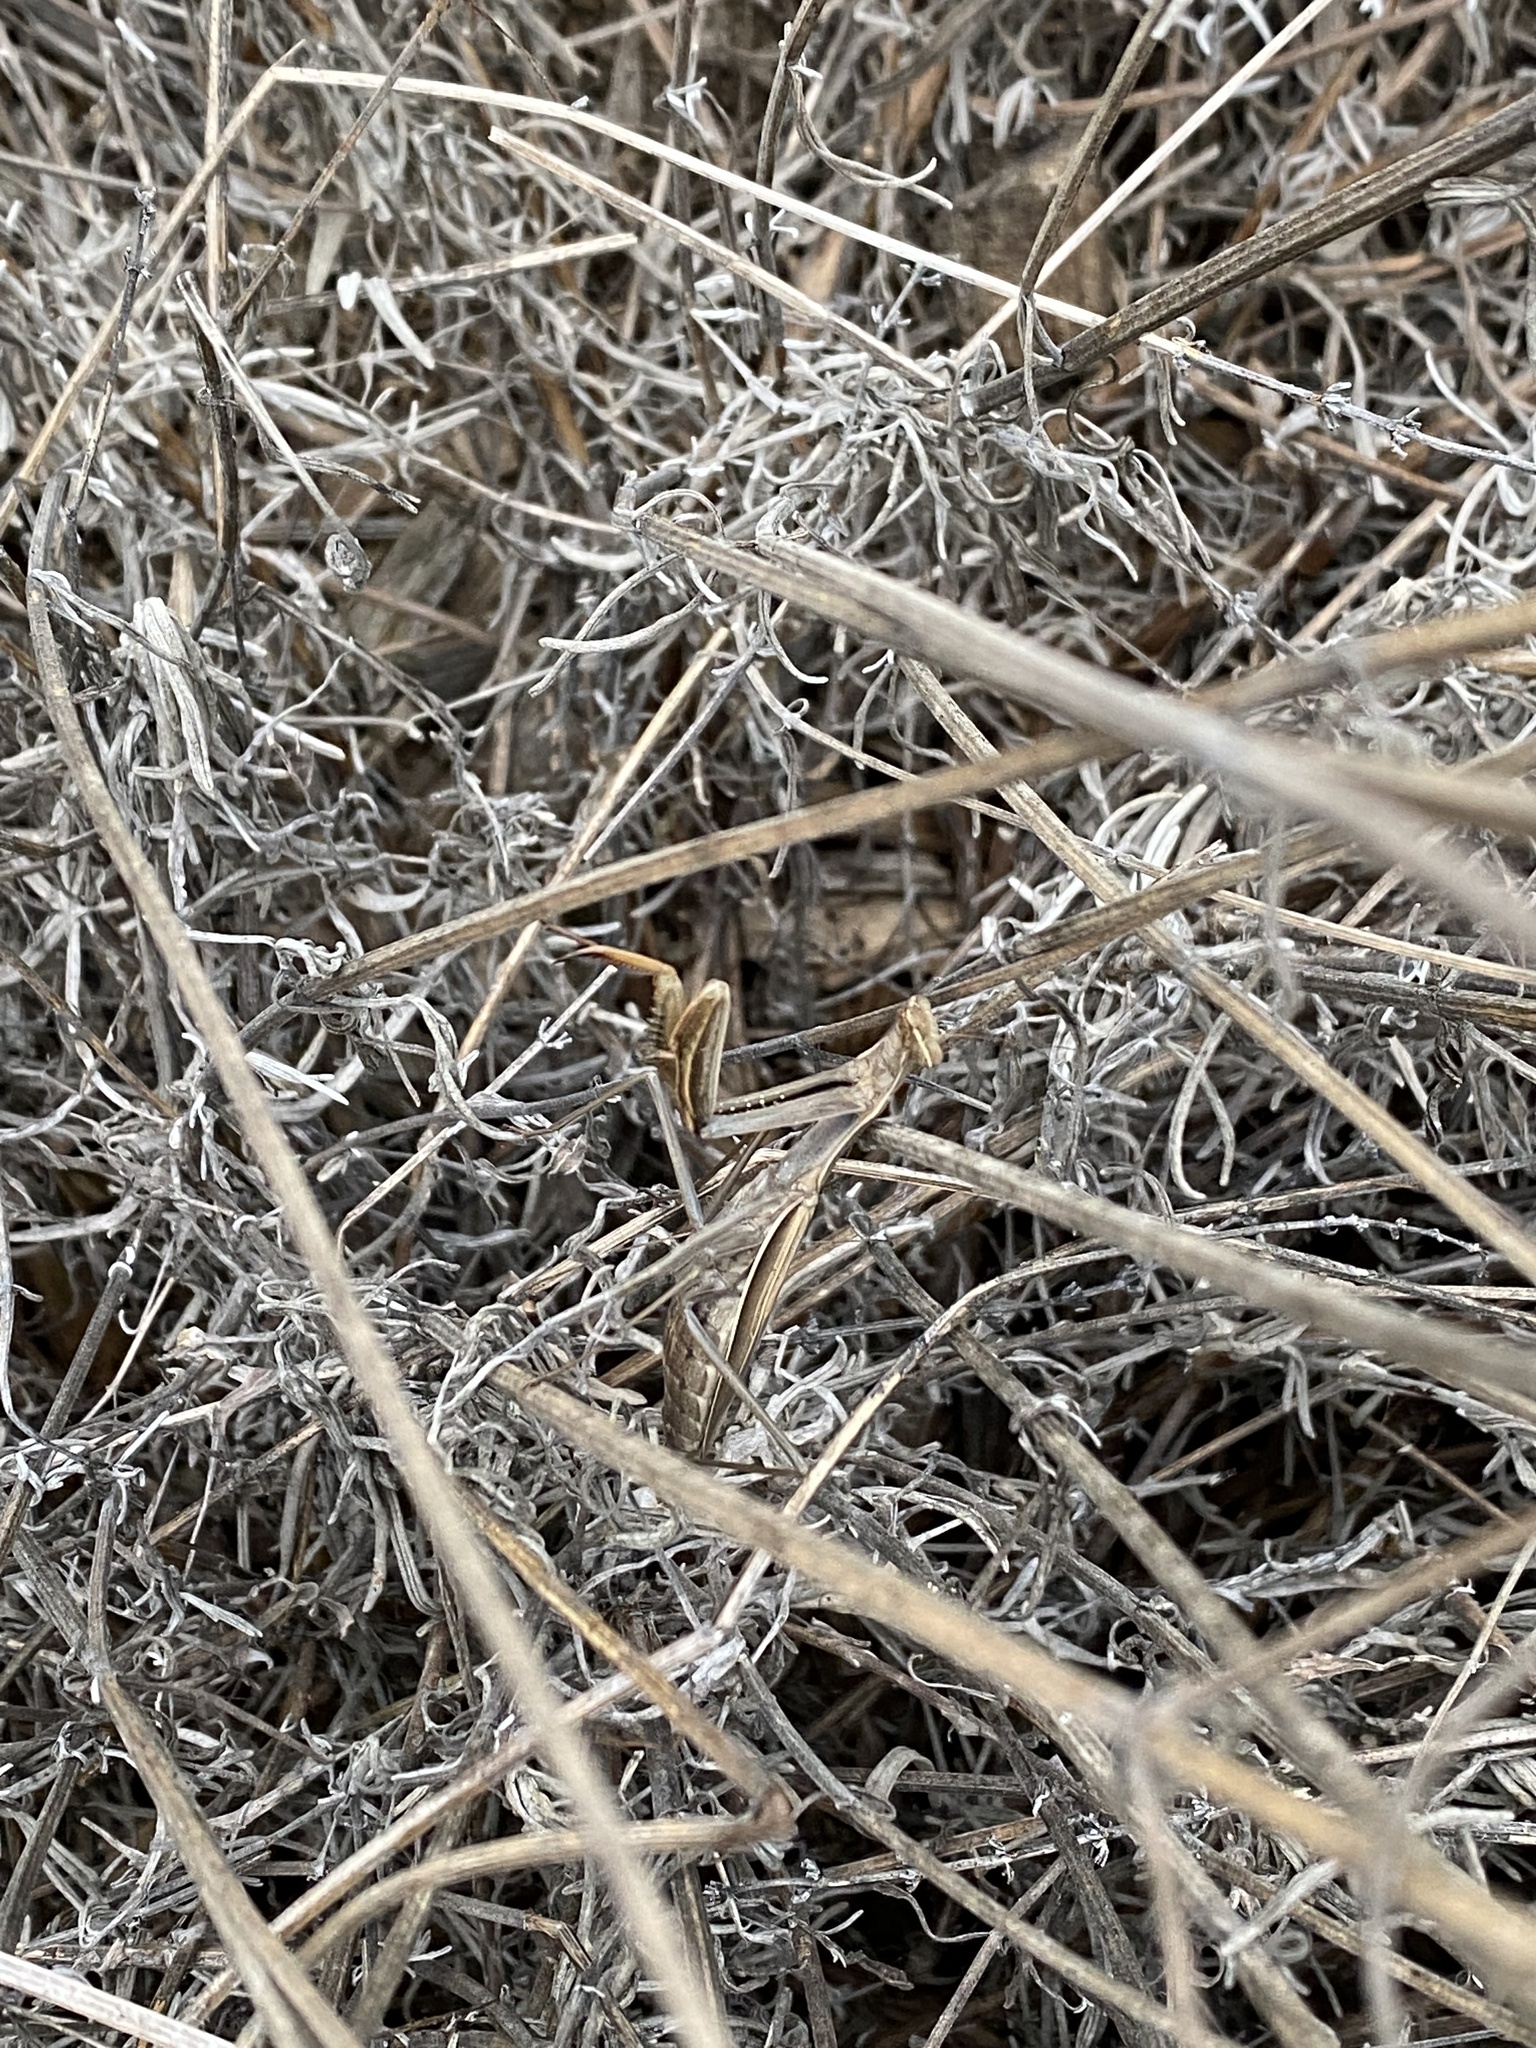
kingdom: Animalia
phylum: Arthropoda
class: Insecta
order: Mantodea
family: Mantidae
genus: Mantis
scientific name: Mantis religiosa
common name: Praying mantis
